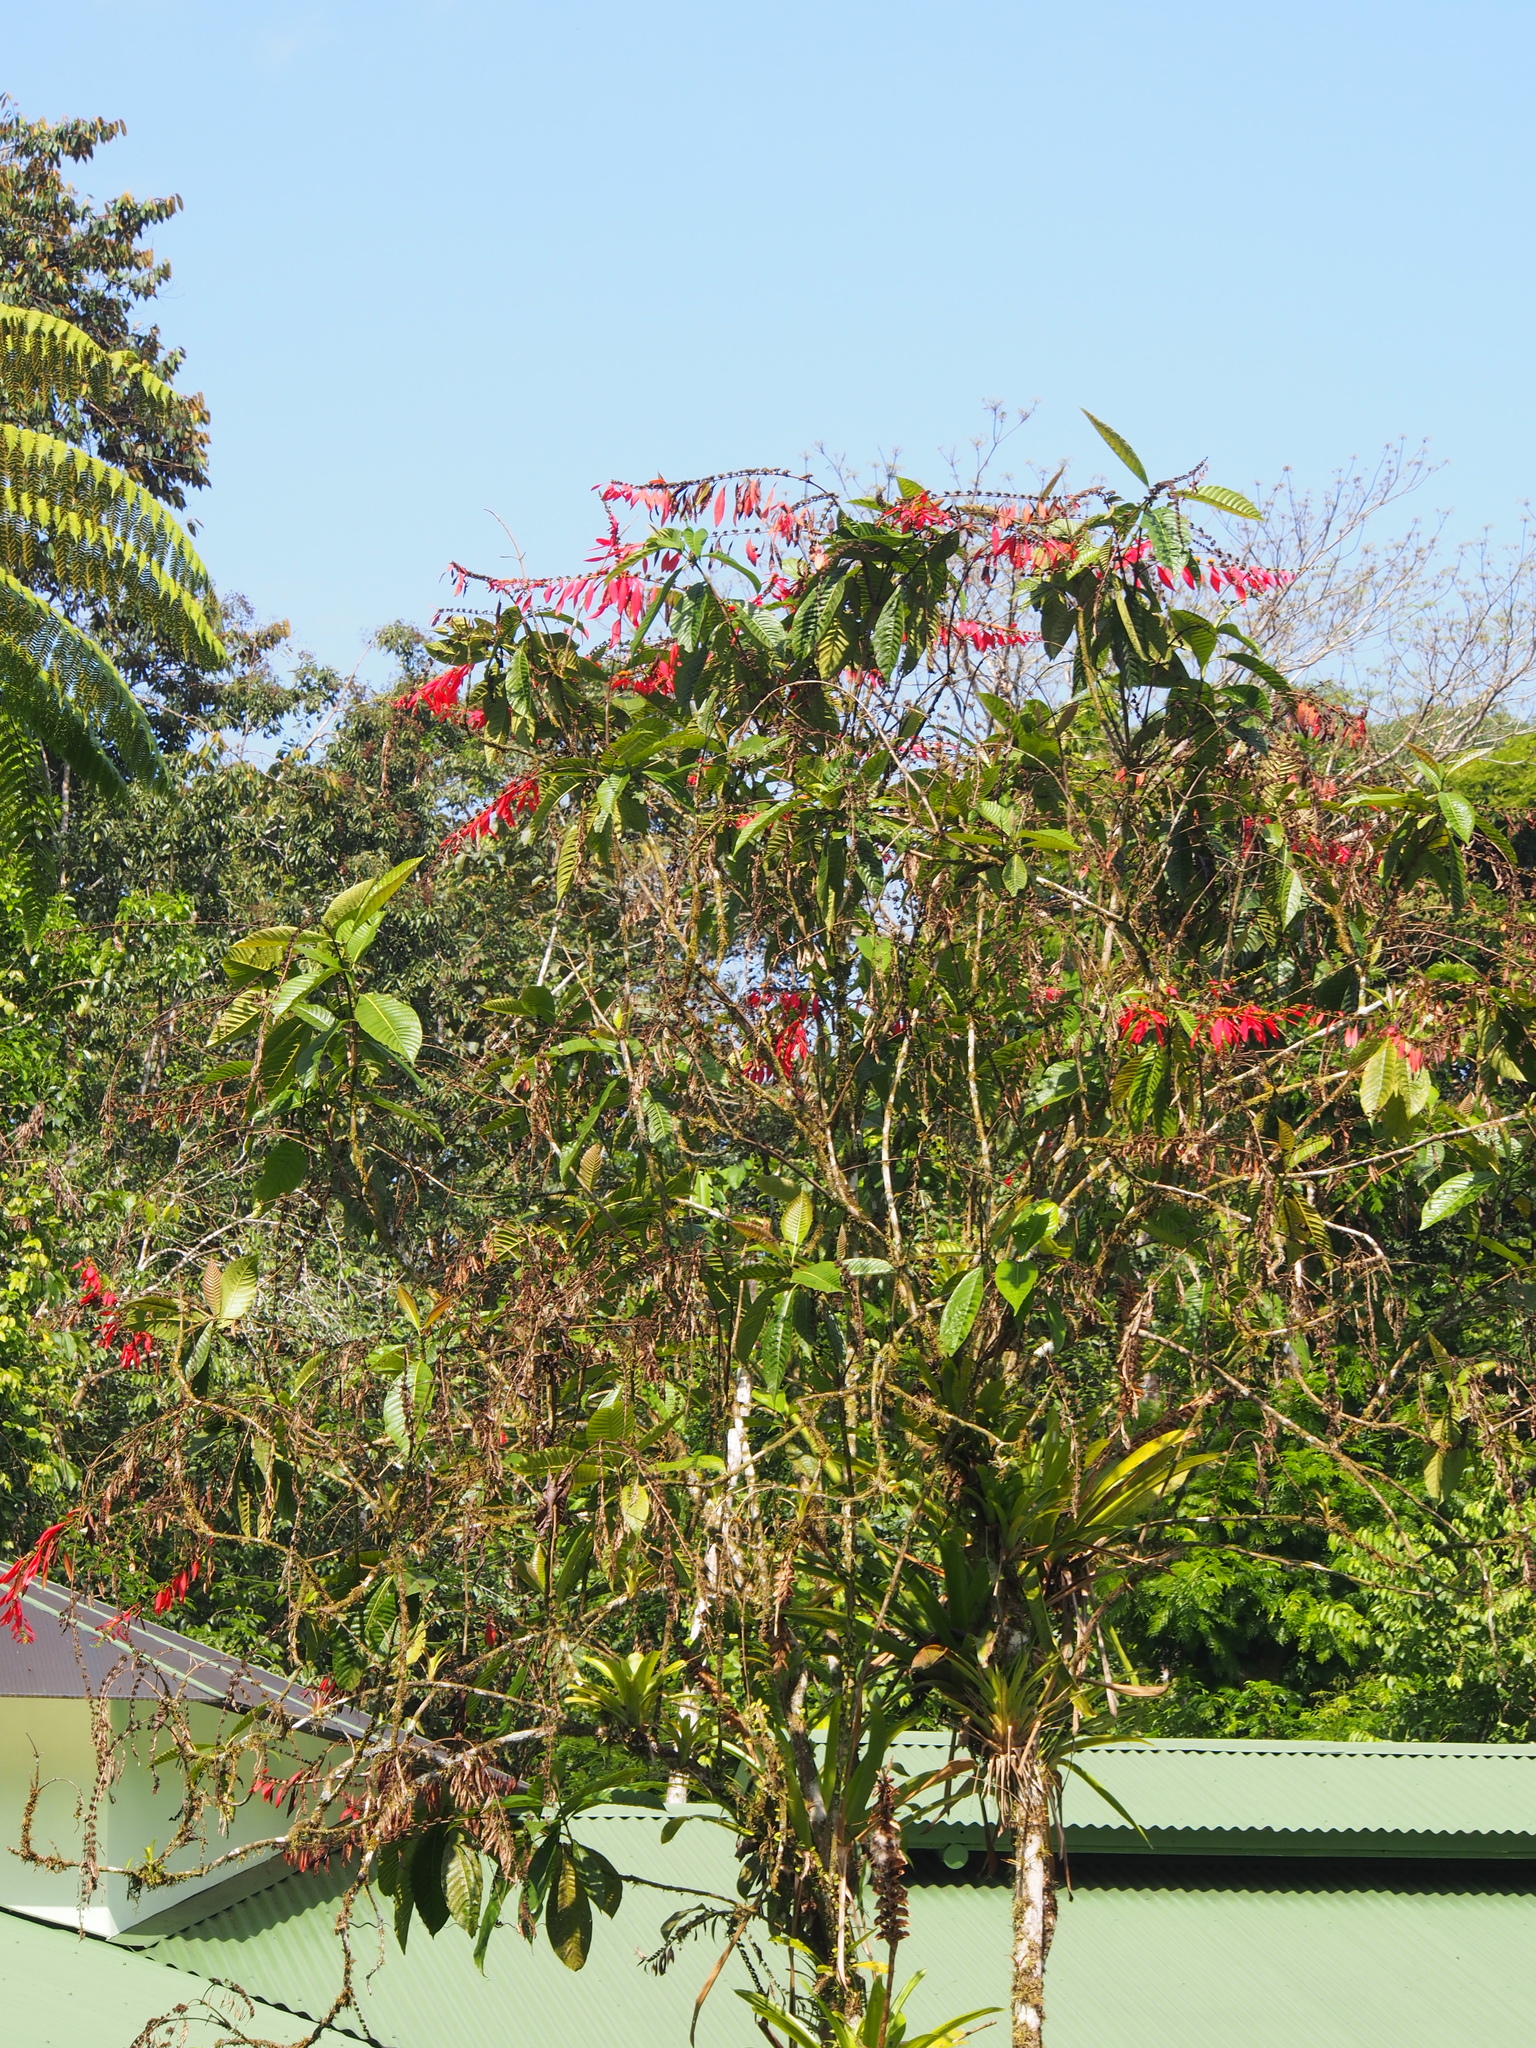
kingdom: Plantae
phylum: Tracheophyta
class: Magnoliopsida
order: Gentianales
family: Rubiaceae
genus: Warszewiczia
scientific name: Warszewiczia coccinea
